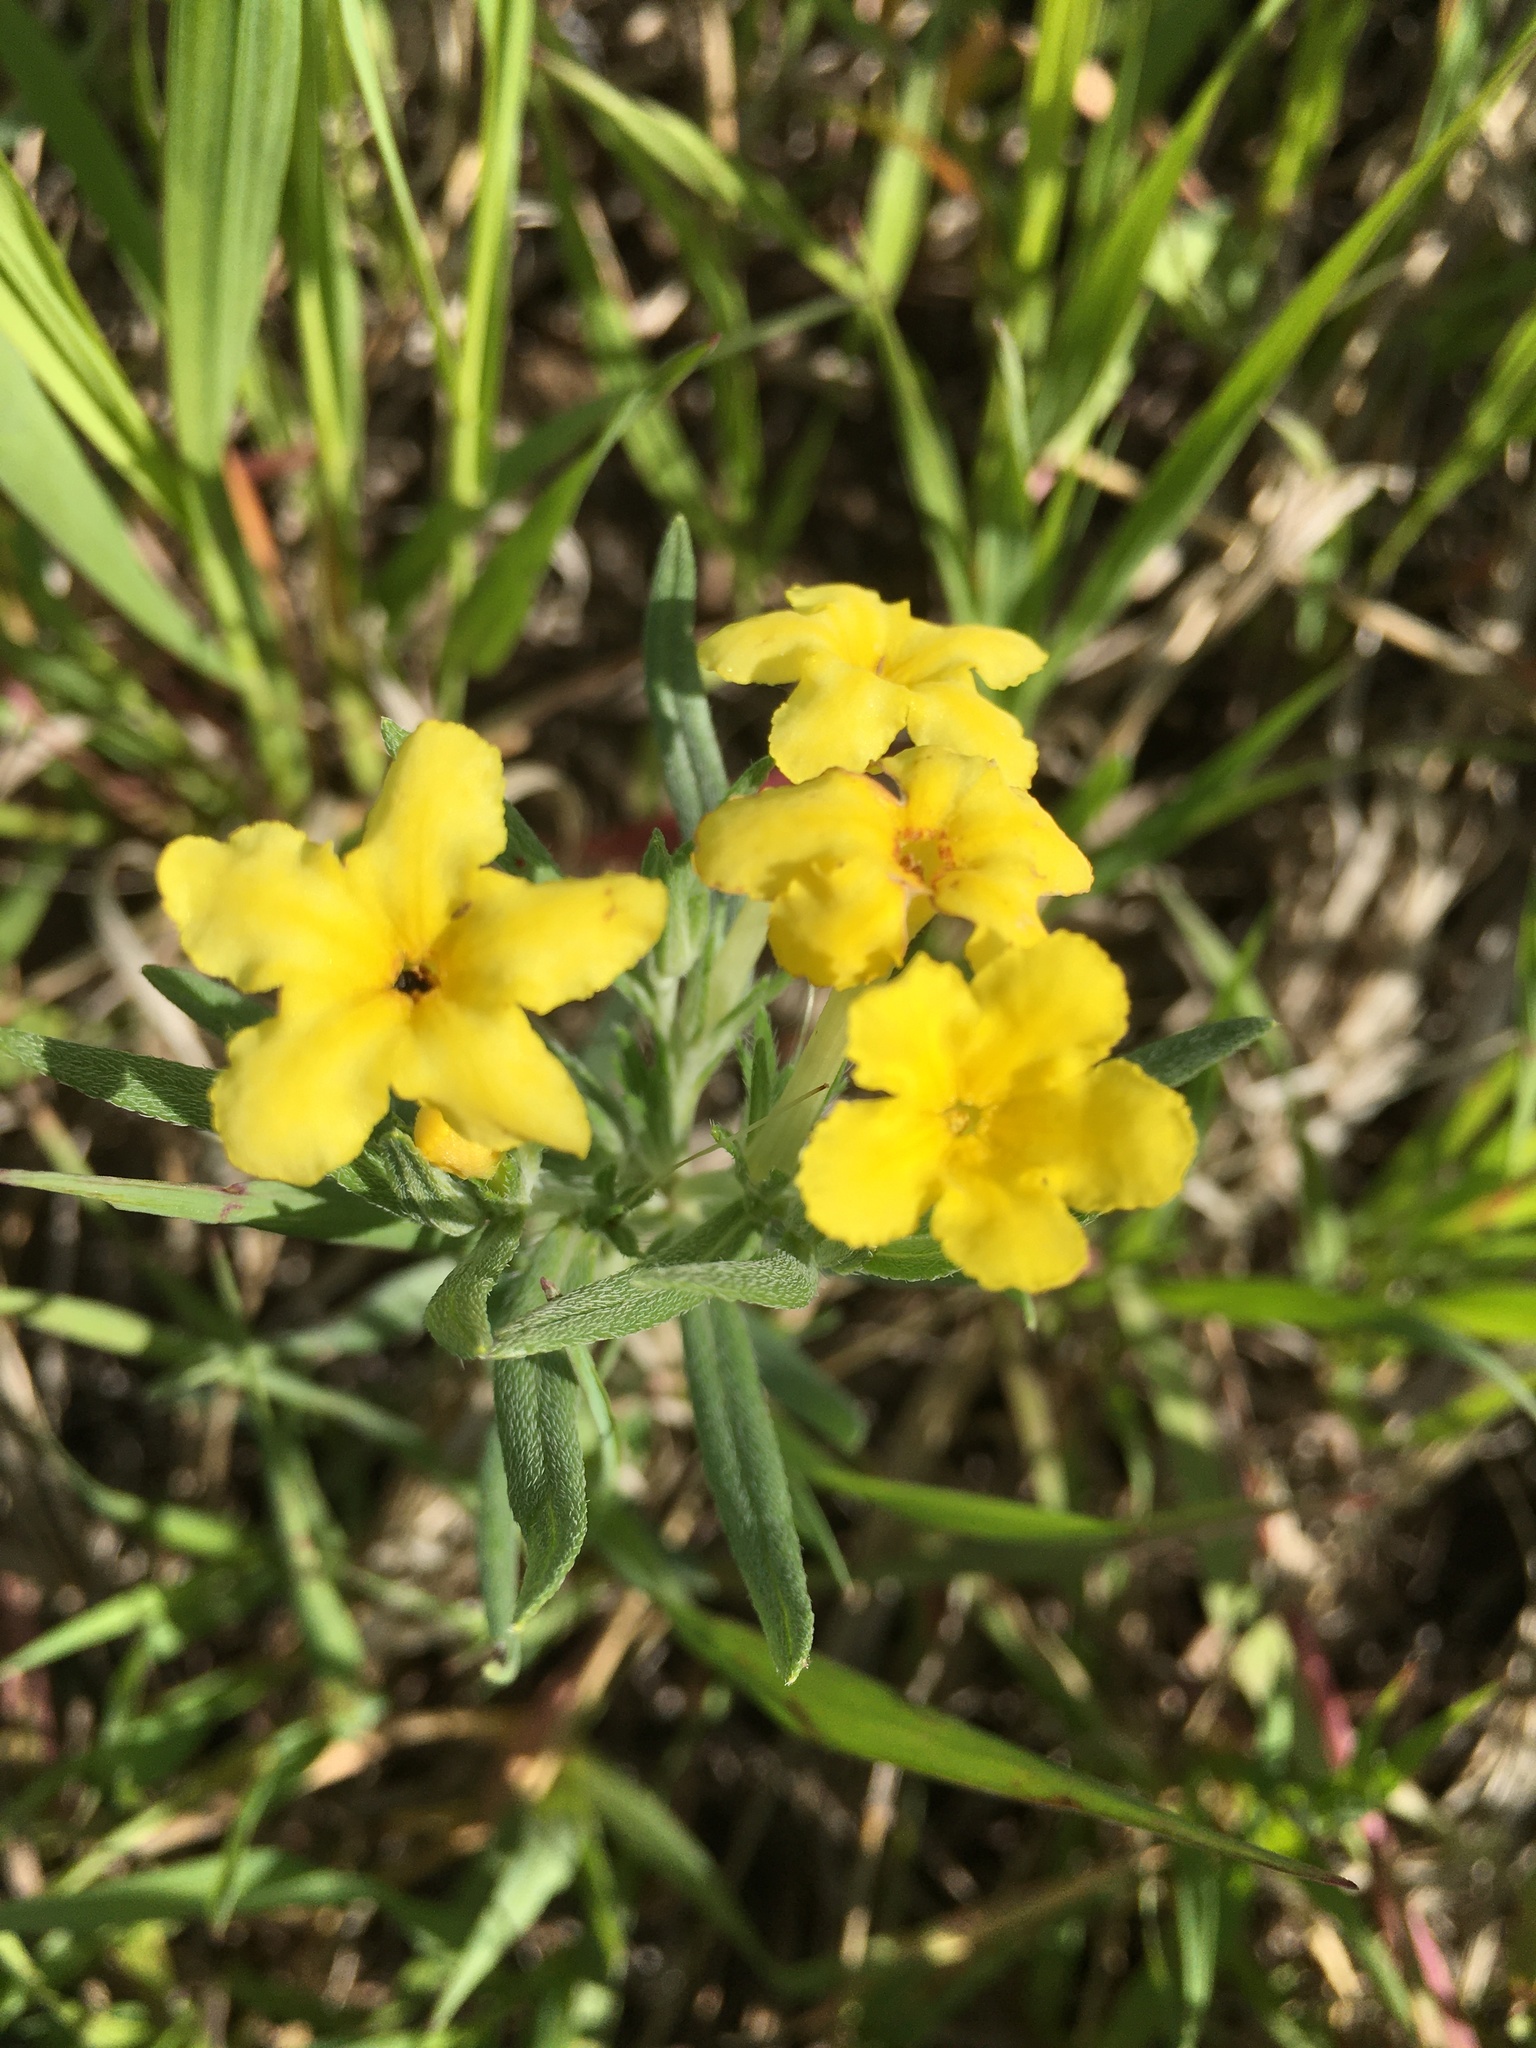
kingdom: Plantae
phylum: Tracheophyta
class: Magnoliopsida
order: Boraginales
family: Boraginaceae
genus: Lithospermum
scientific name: Lithospermum incisum
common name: Fringed gromwell
